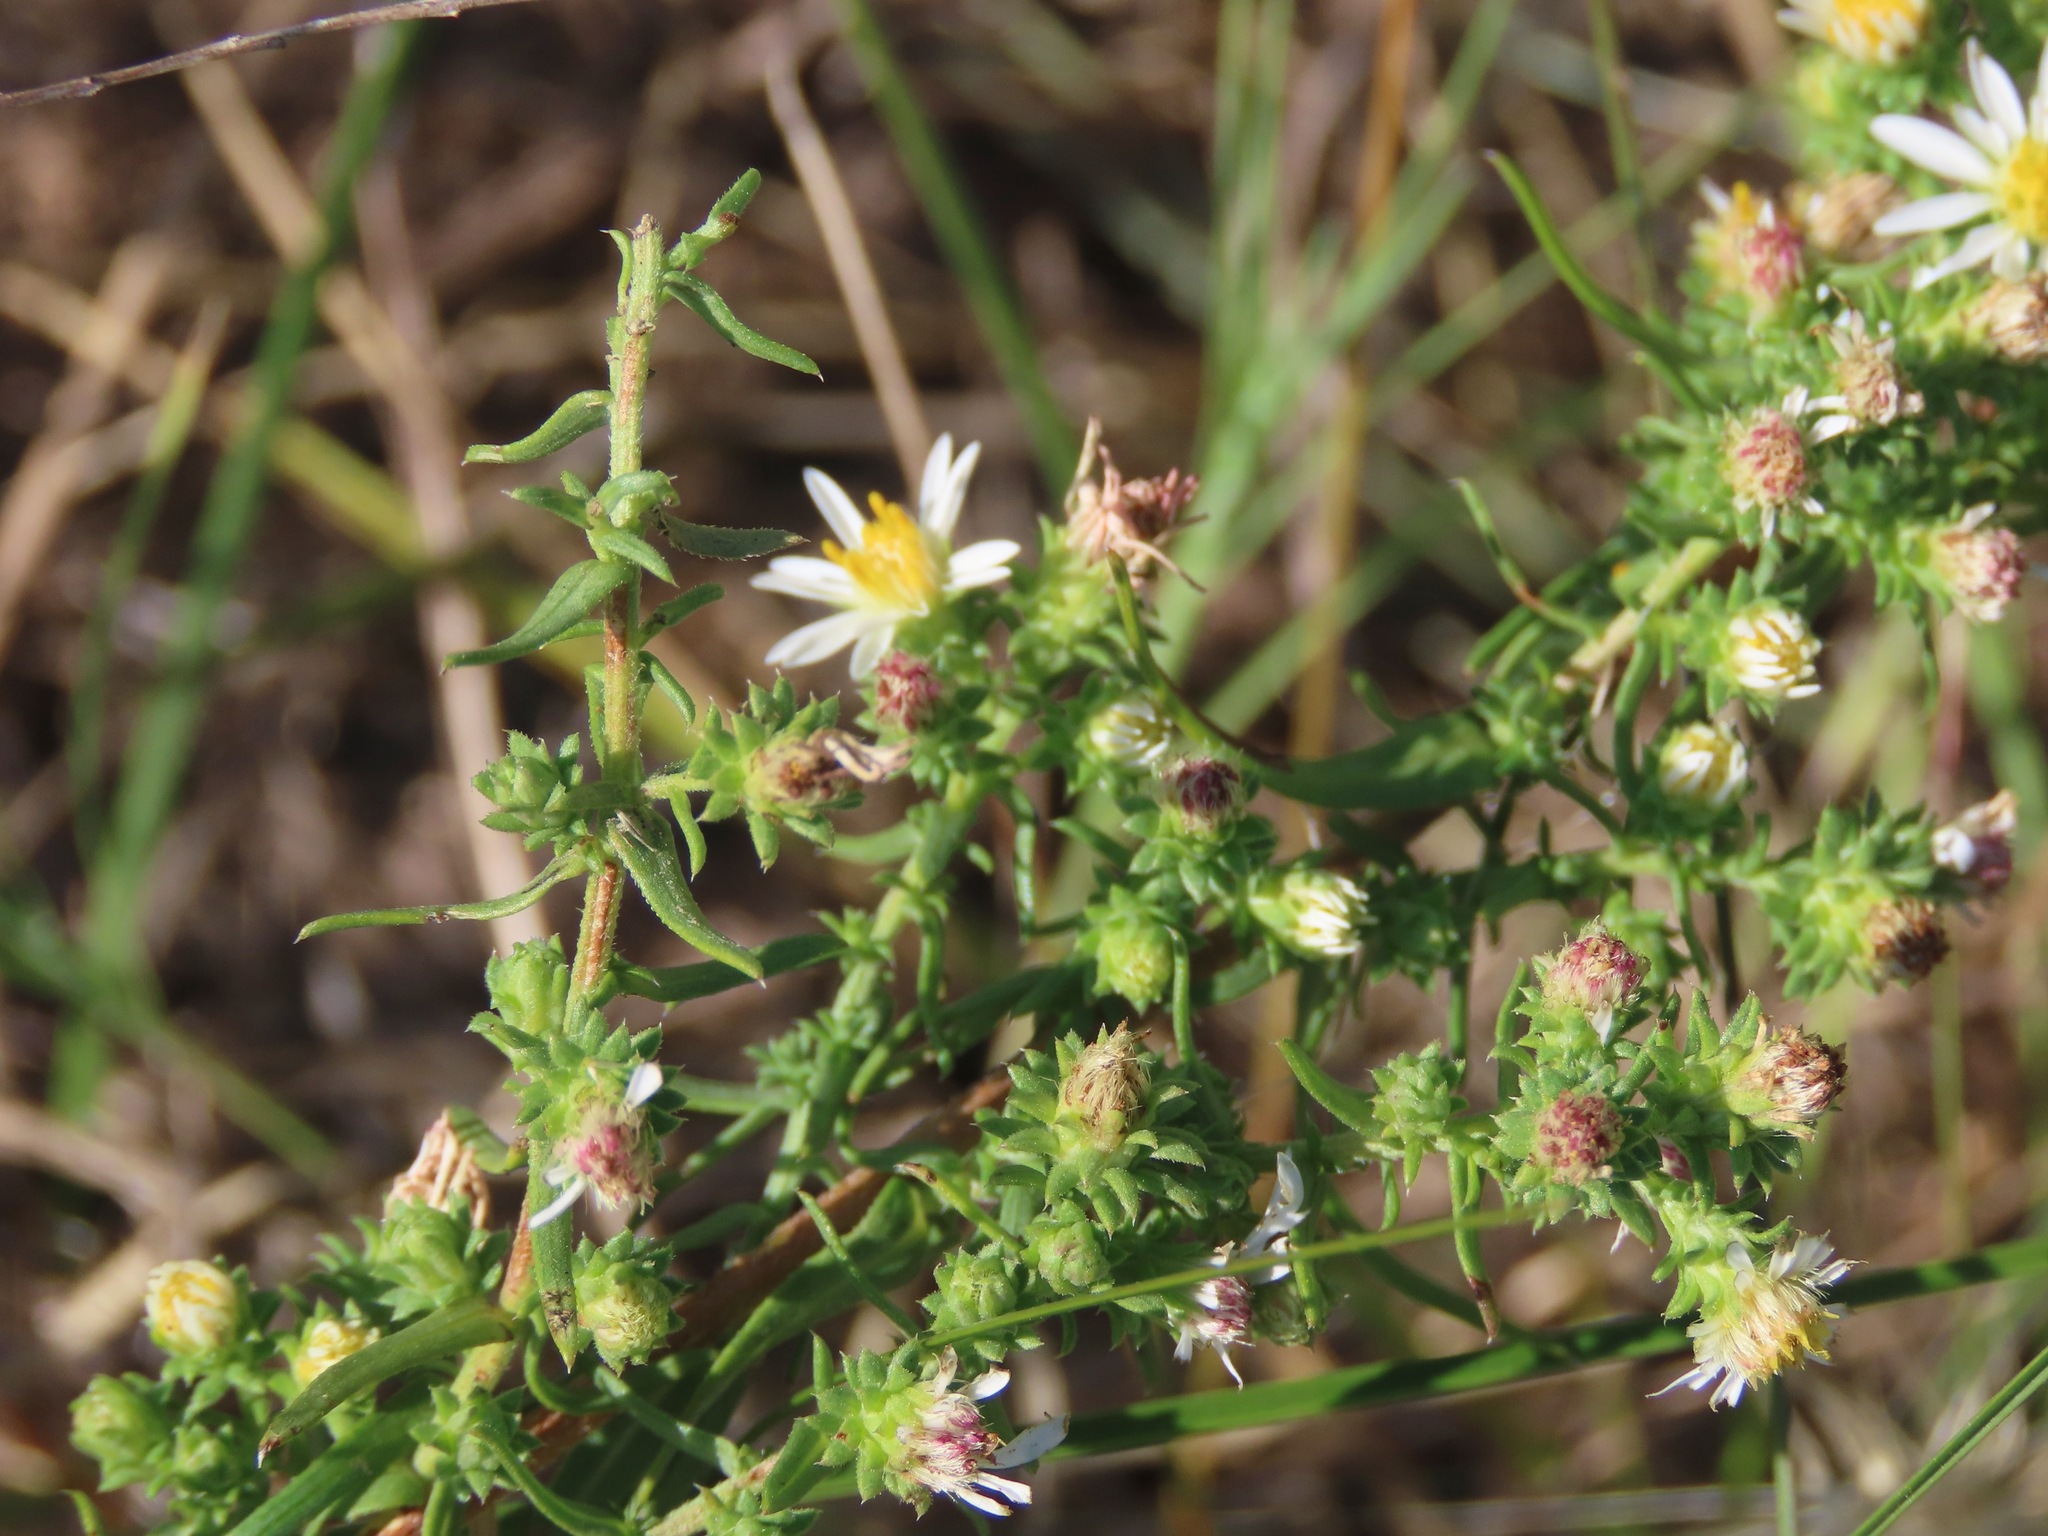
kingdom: Plantae
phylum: Tracheophyta
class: Magnoliopsida
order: Asterales
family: Asteraceae
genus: Symphyotrichum
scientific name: Symphyotrichum ericoides
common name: Heath aster
